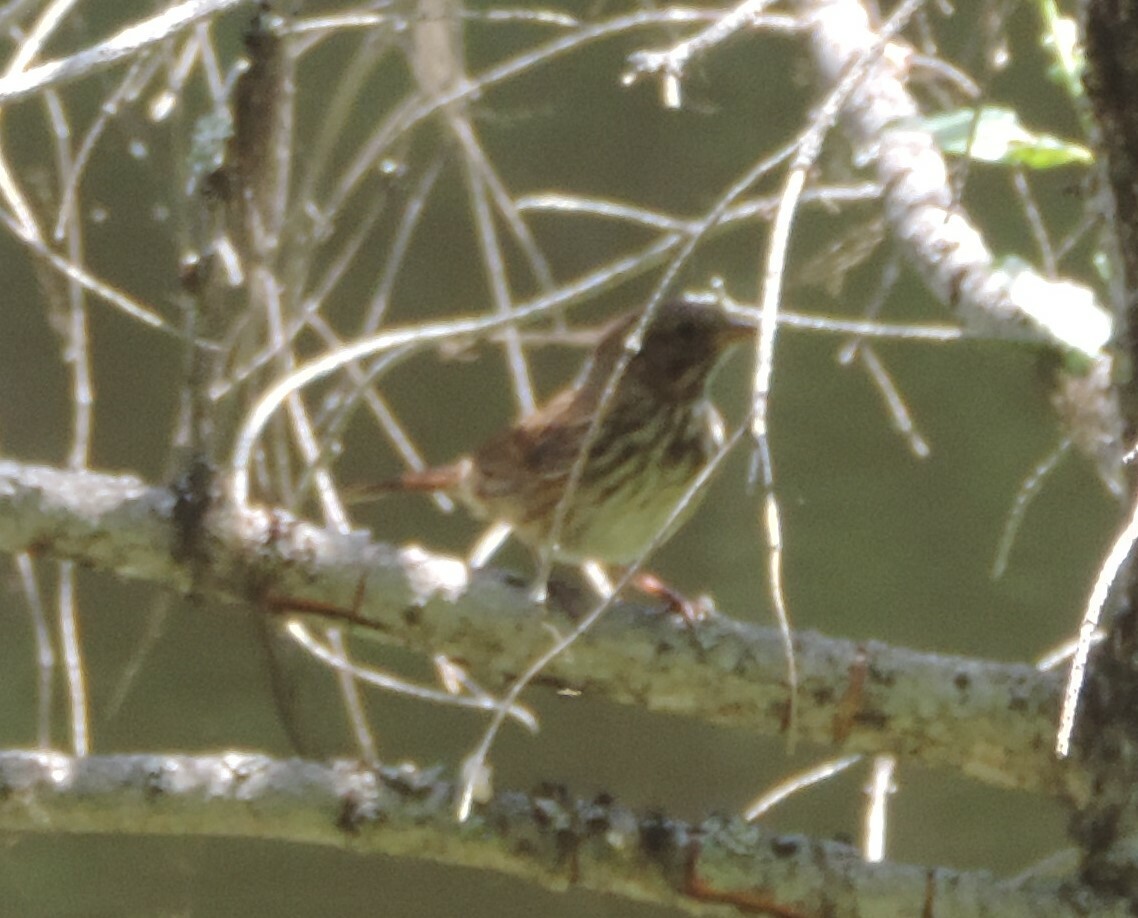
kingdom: Animalia
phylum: Chordata
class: Aves
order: Passeriformes
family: Passerellidae
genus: Melospiza
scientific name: Melospiza melodia
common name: Song sparrow
